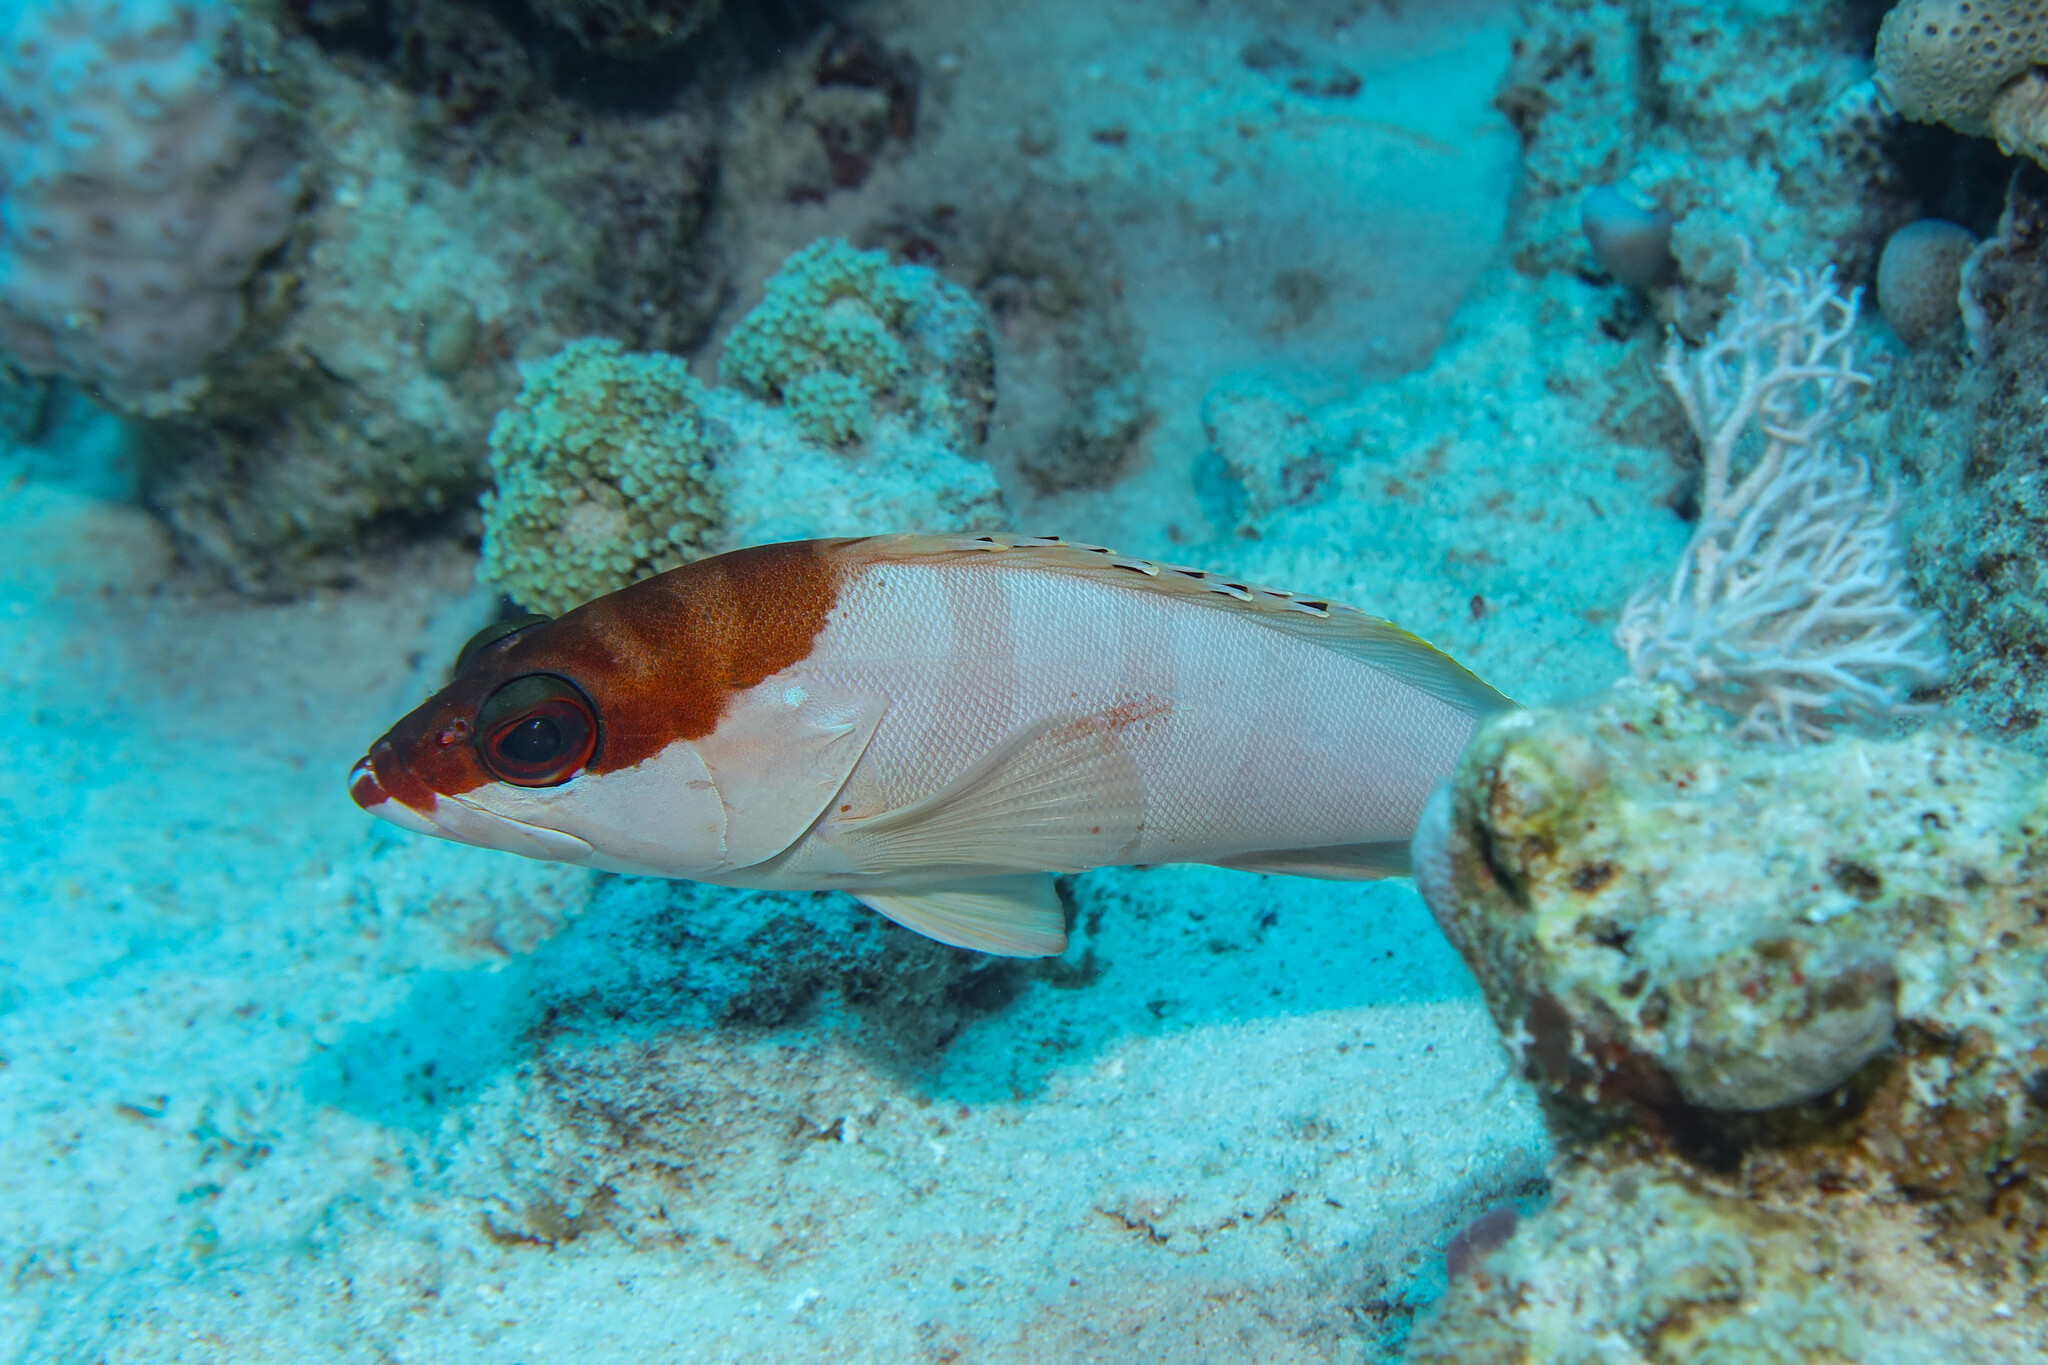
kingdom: Animalia
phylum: Chordata
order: Perciformes
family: Serranidae
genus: Epinephelus
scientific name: Epinephelus fasciatus
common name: Blacktip grouper
